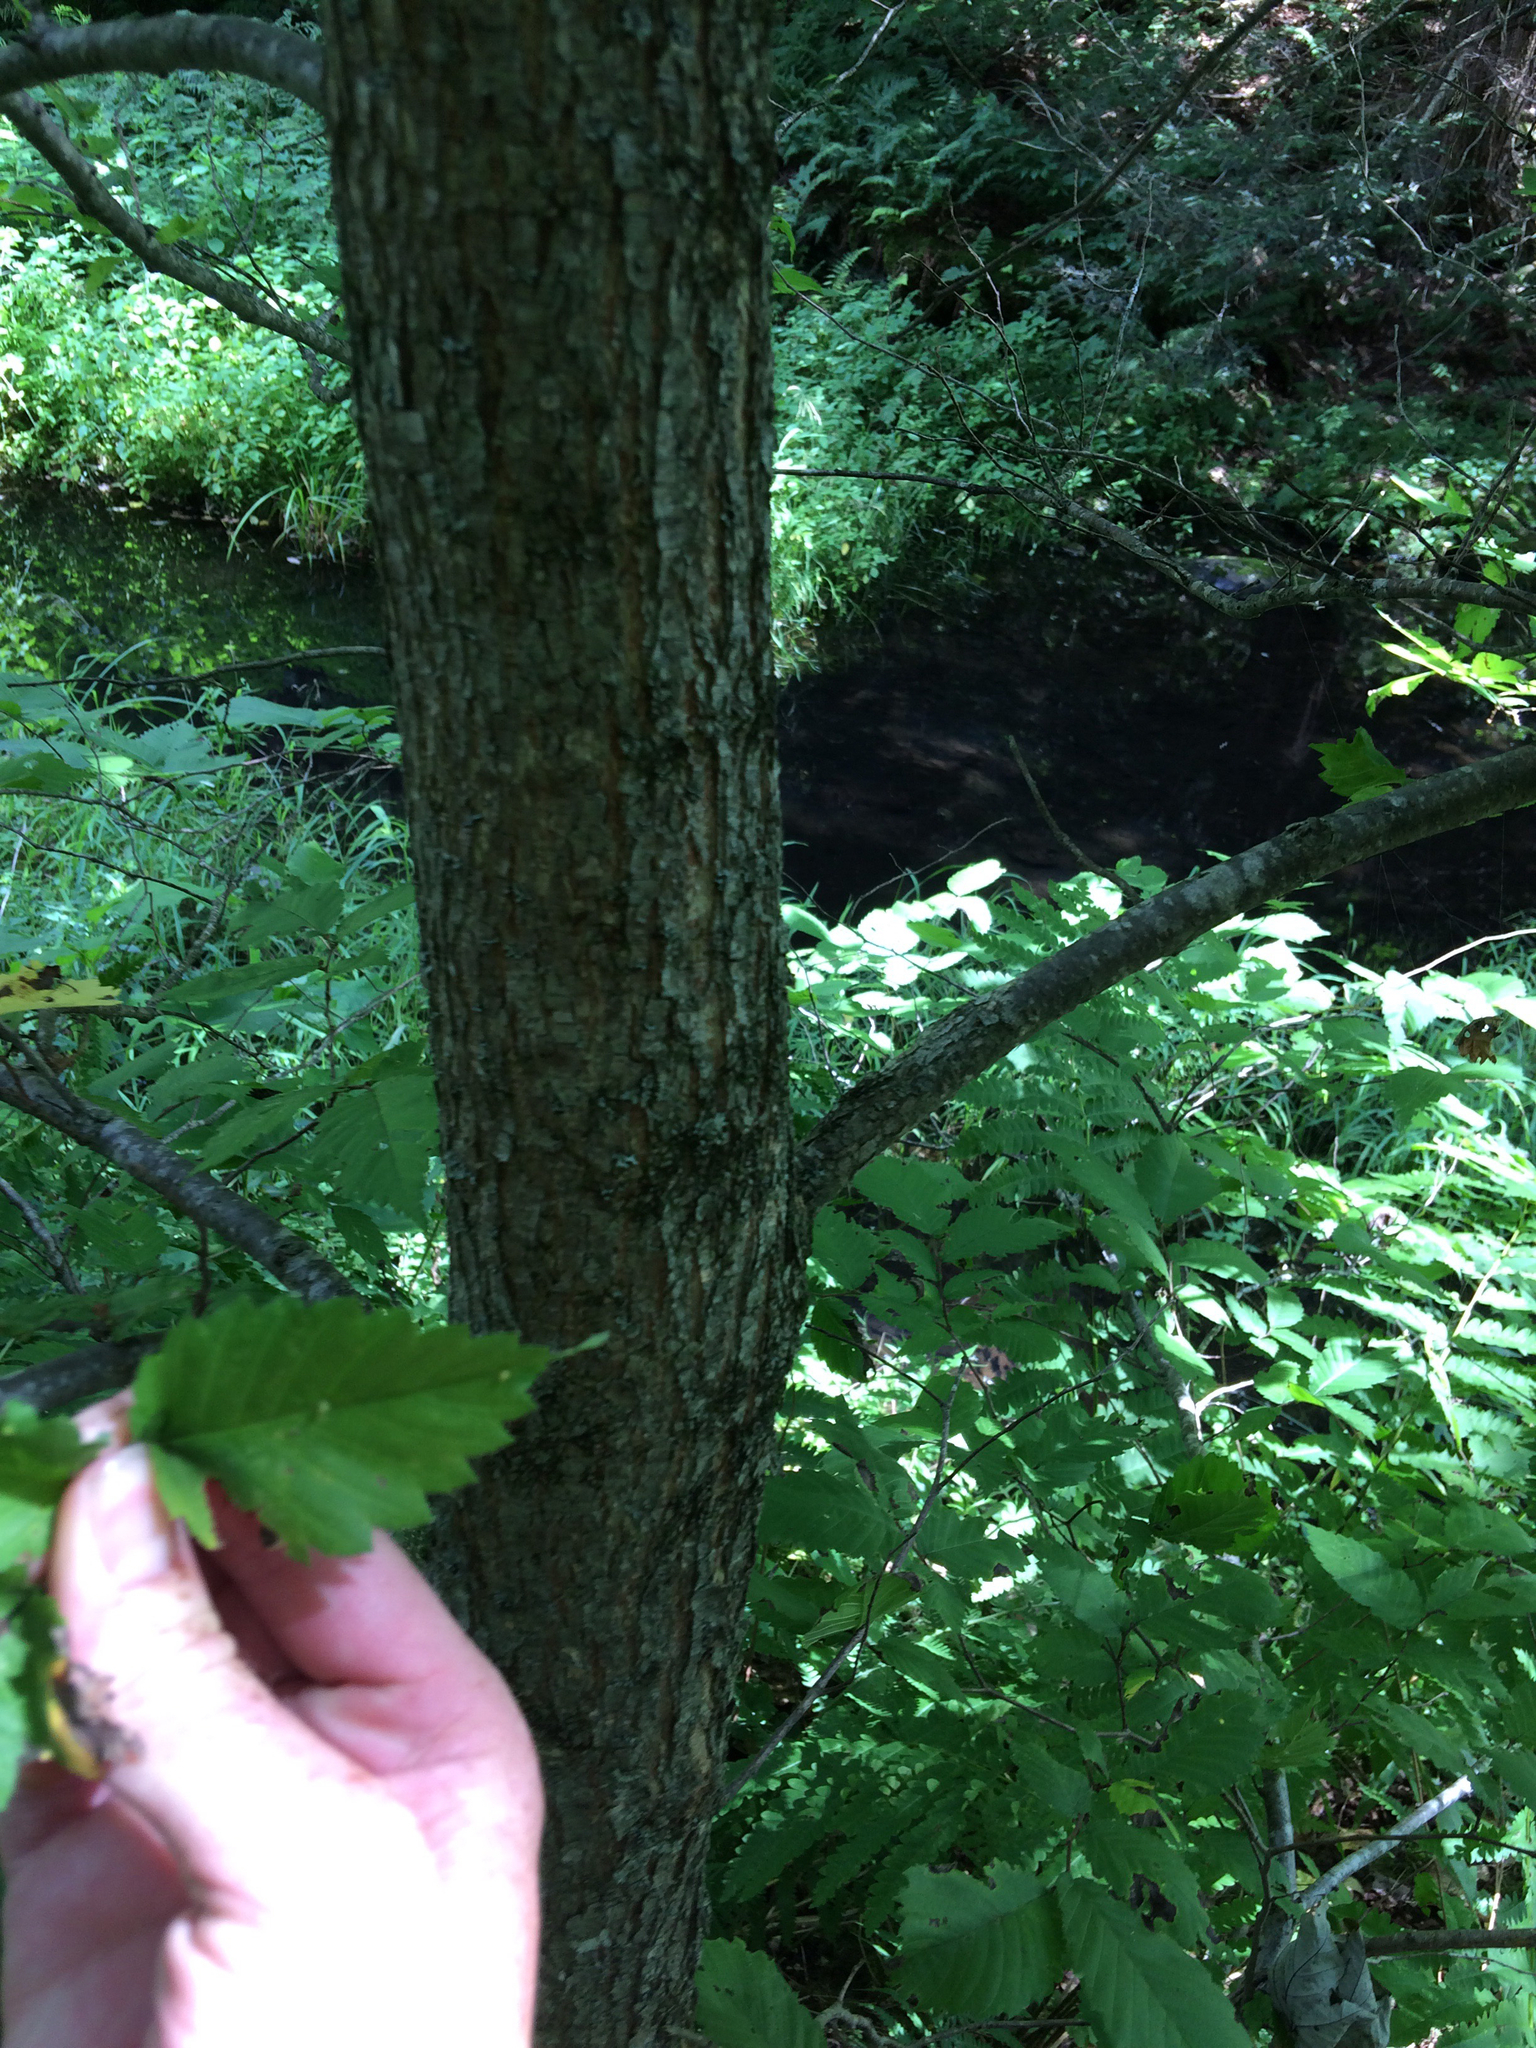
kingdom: Plantae
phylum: Tracheophyta
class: Magnoliopsida
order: Rosales
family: Ulmaceae
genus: Ulmus
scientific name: Ulmus americana
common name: American elm
